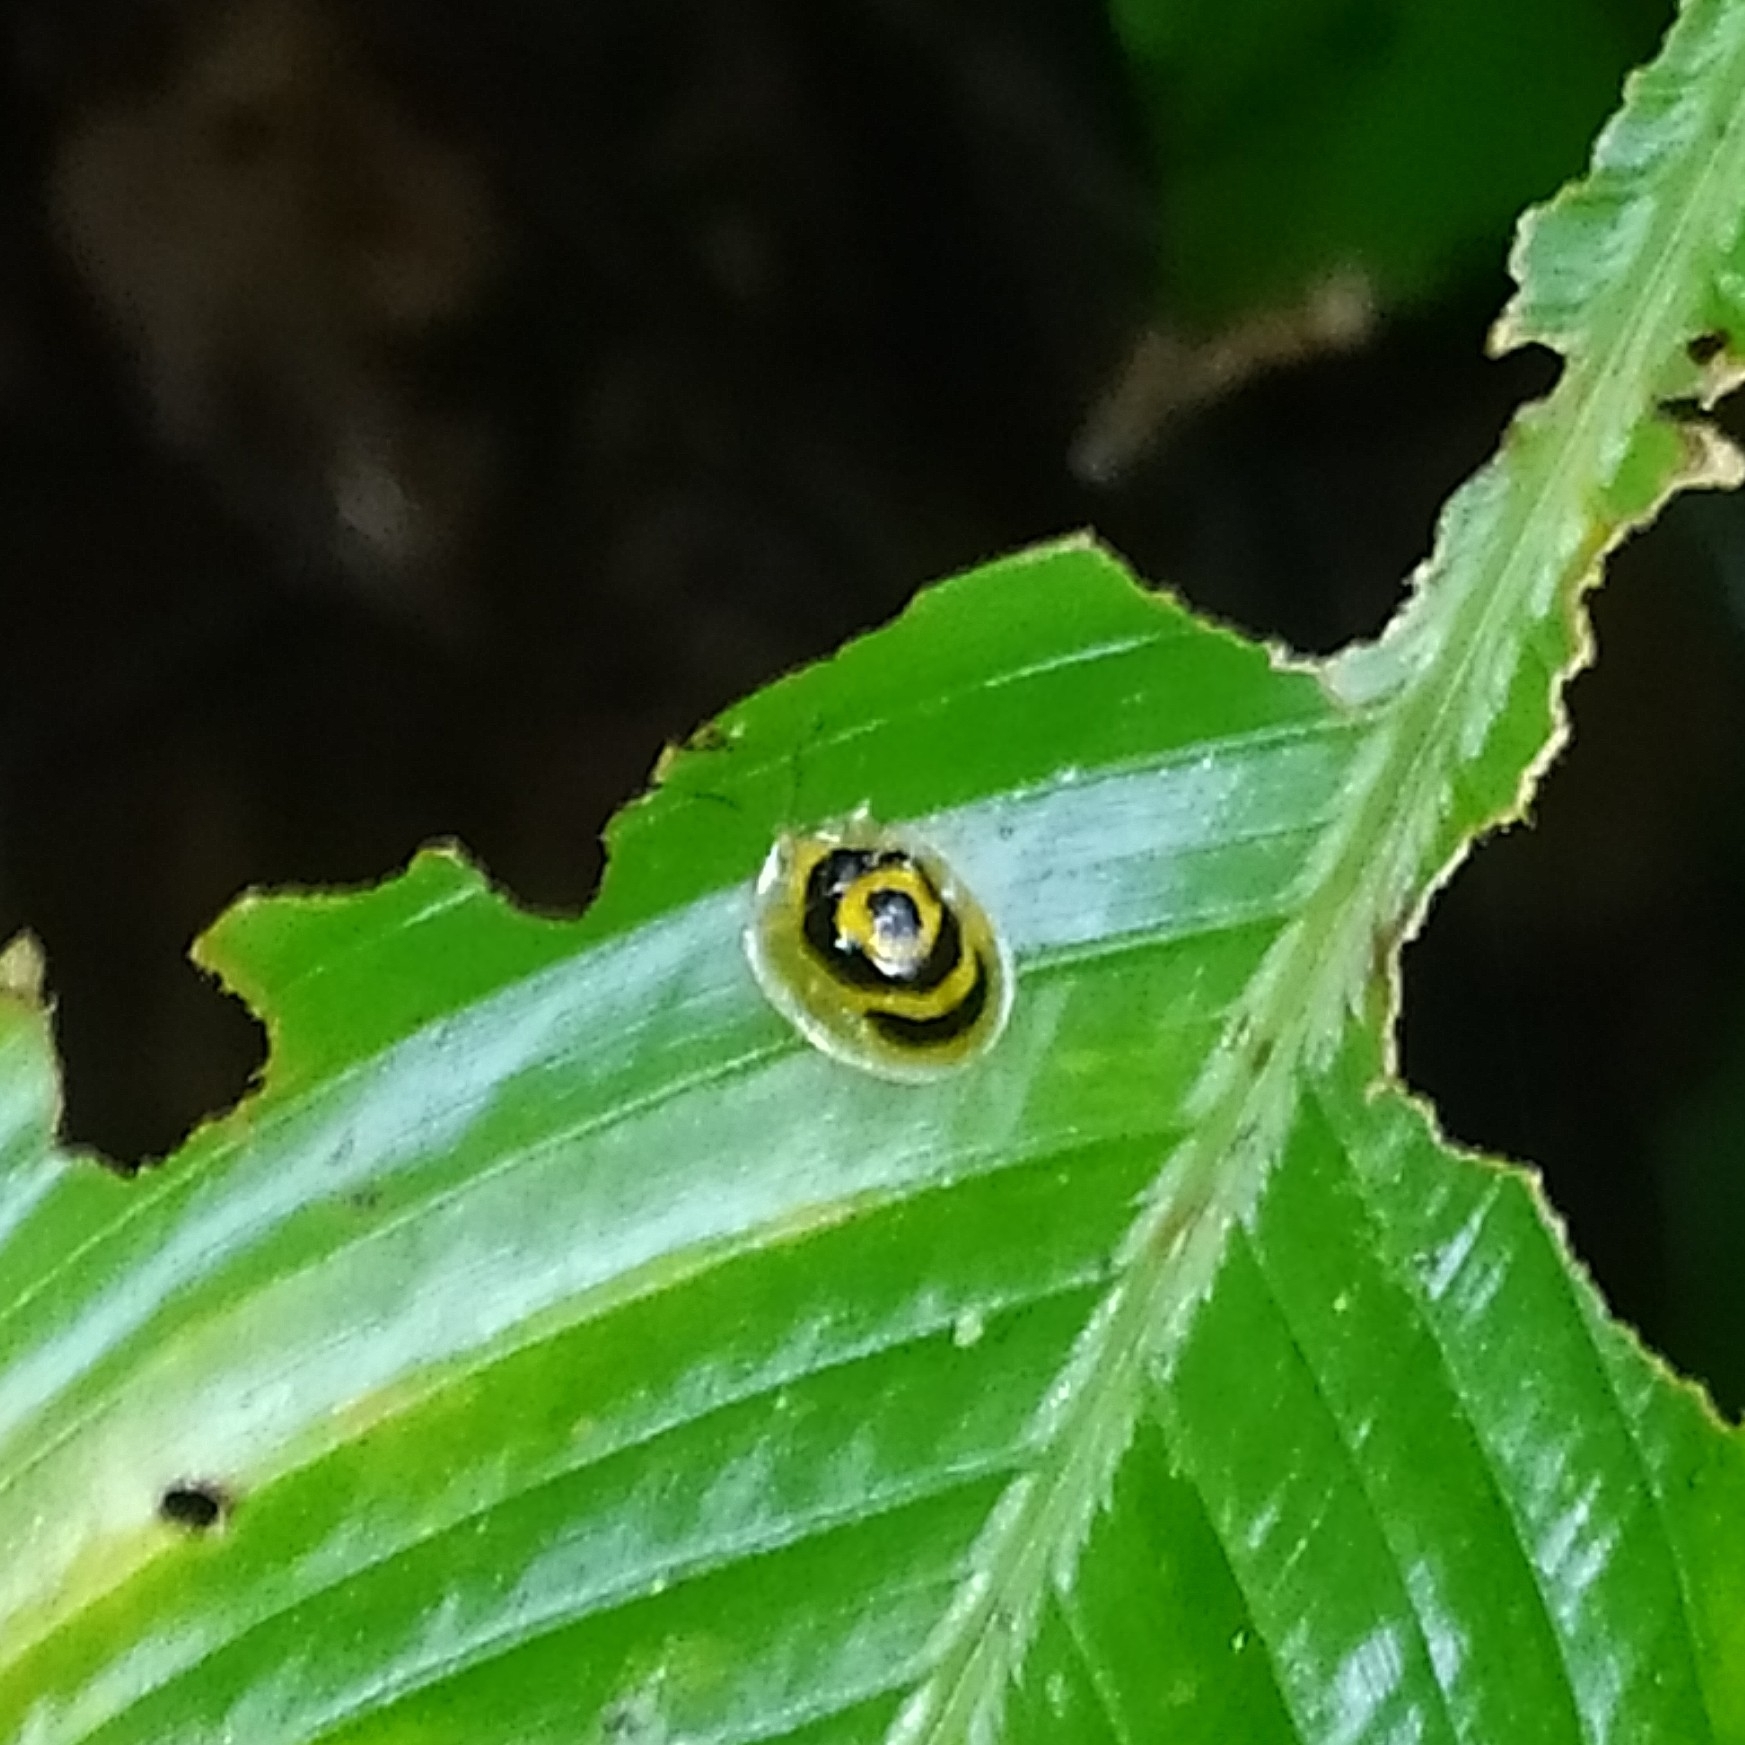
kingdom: Animalia
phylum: Arthropoda
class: Insecta
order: Coleoptera
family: Chrysomelidae
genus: Ischnocodia
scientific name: Ischnocodia annulus
